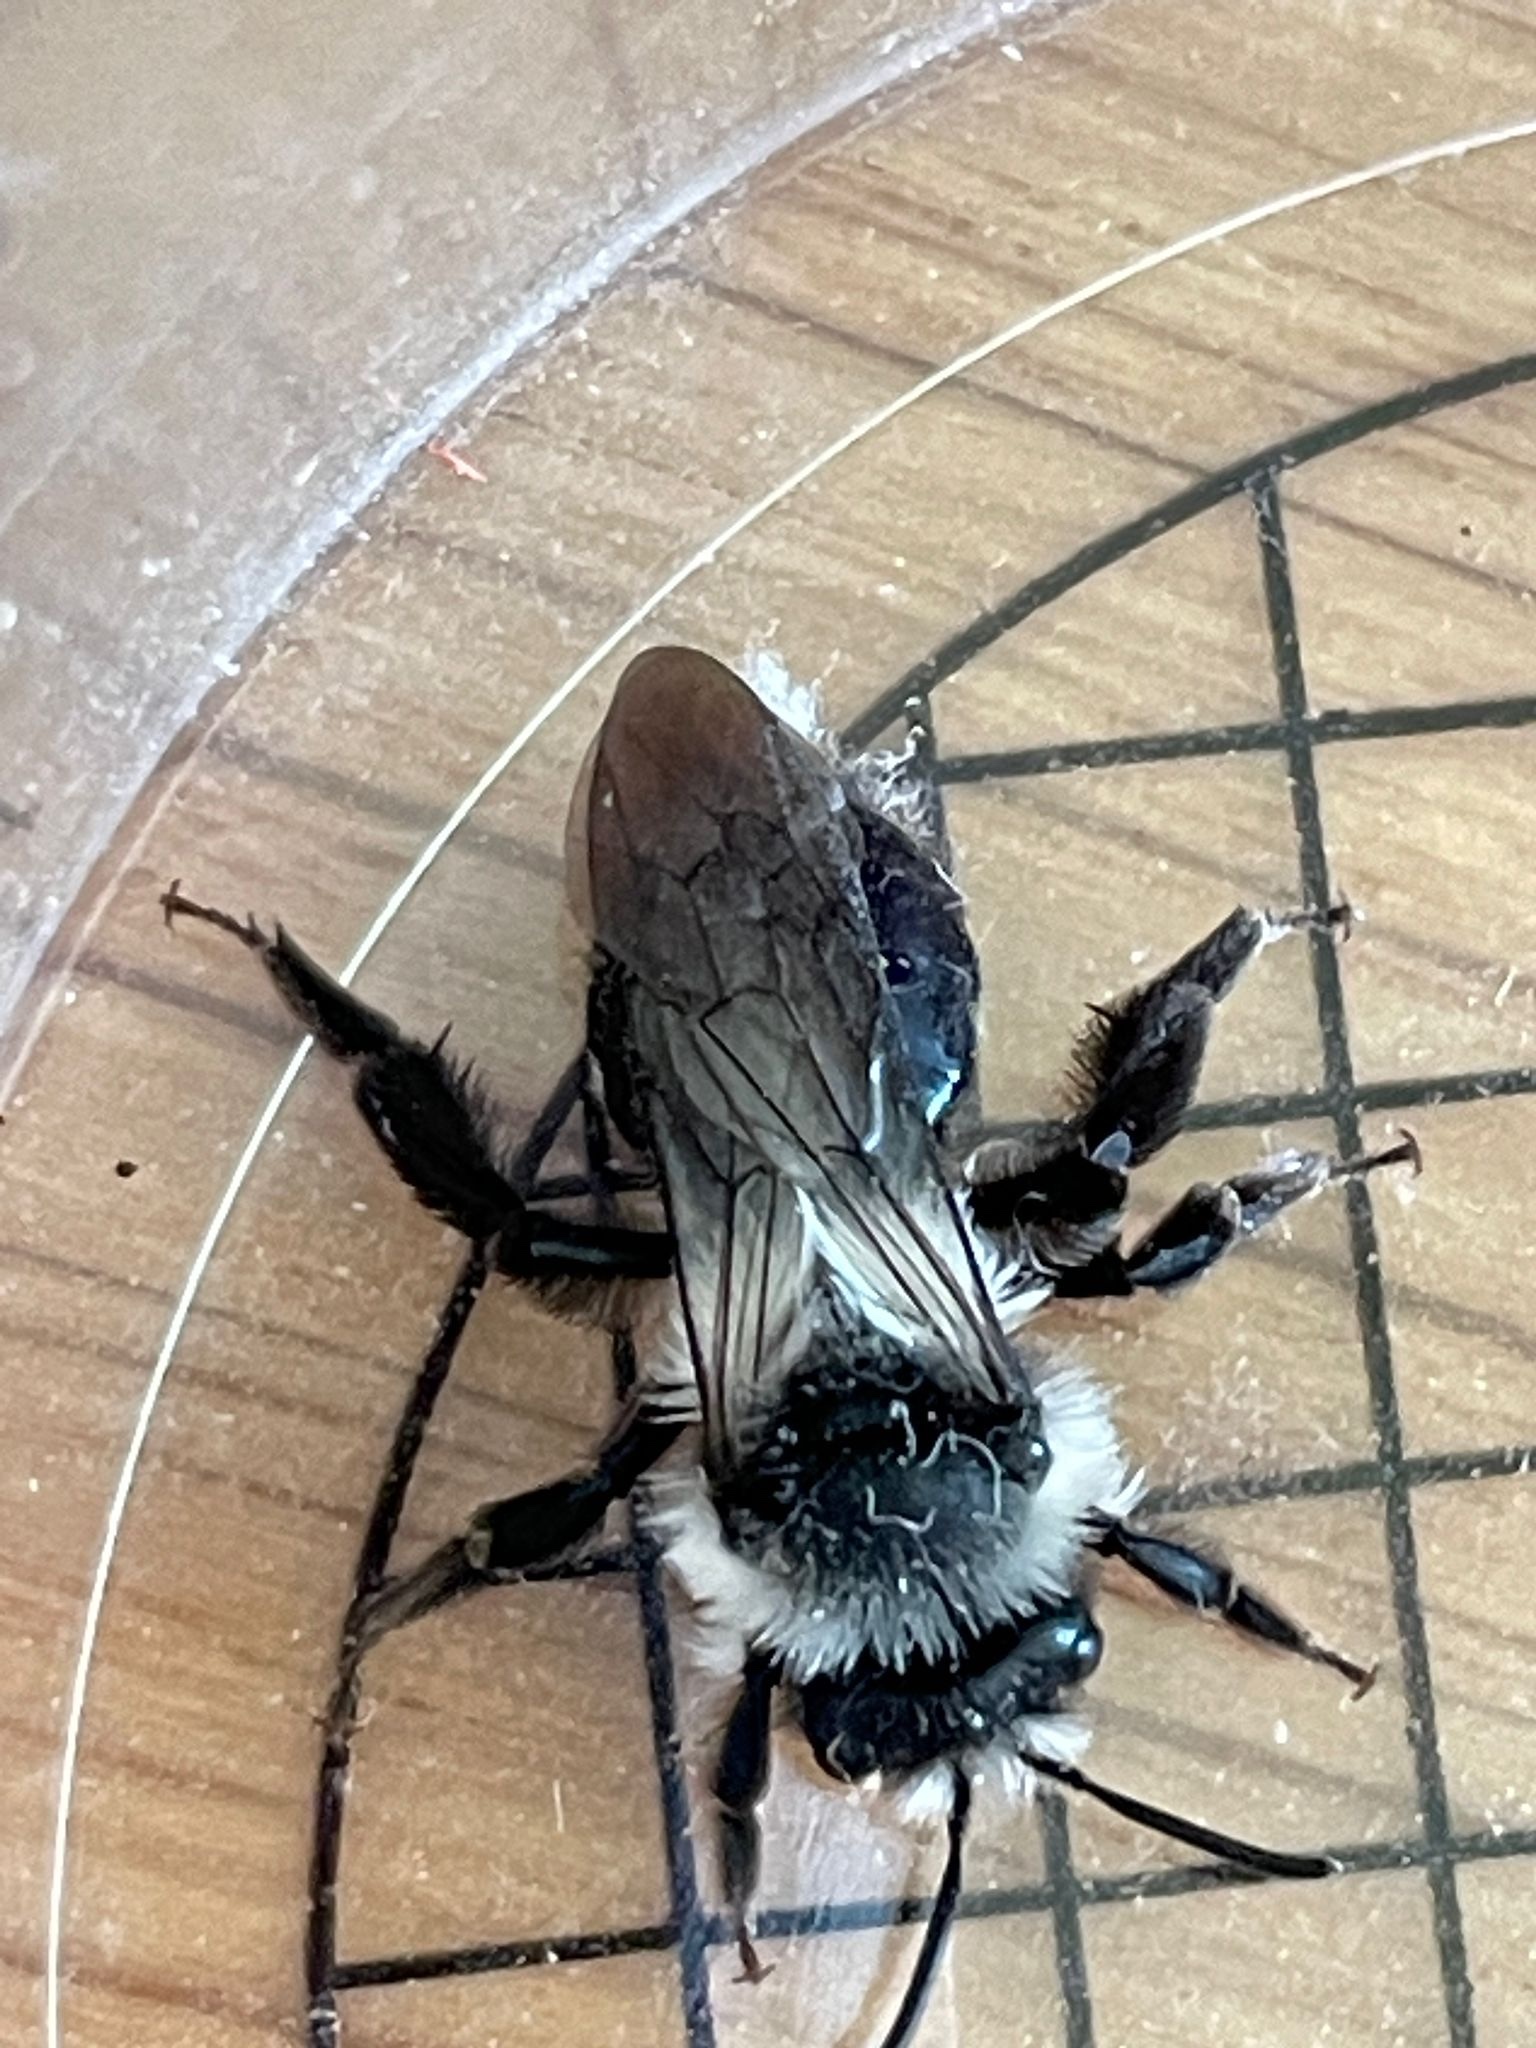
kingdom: Animalia
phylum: Arthropoda
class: Insecta
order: Hymenoptera
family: Andrenidae
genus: Andrena
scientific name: Andrena cineraria
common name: Ashy mining bee
